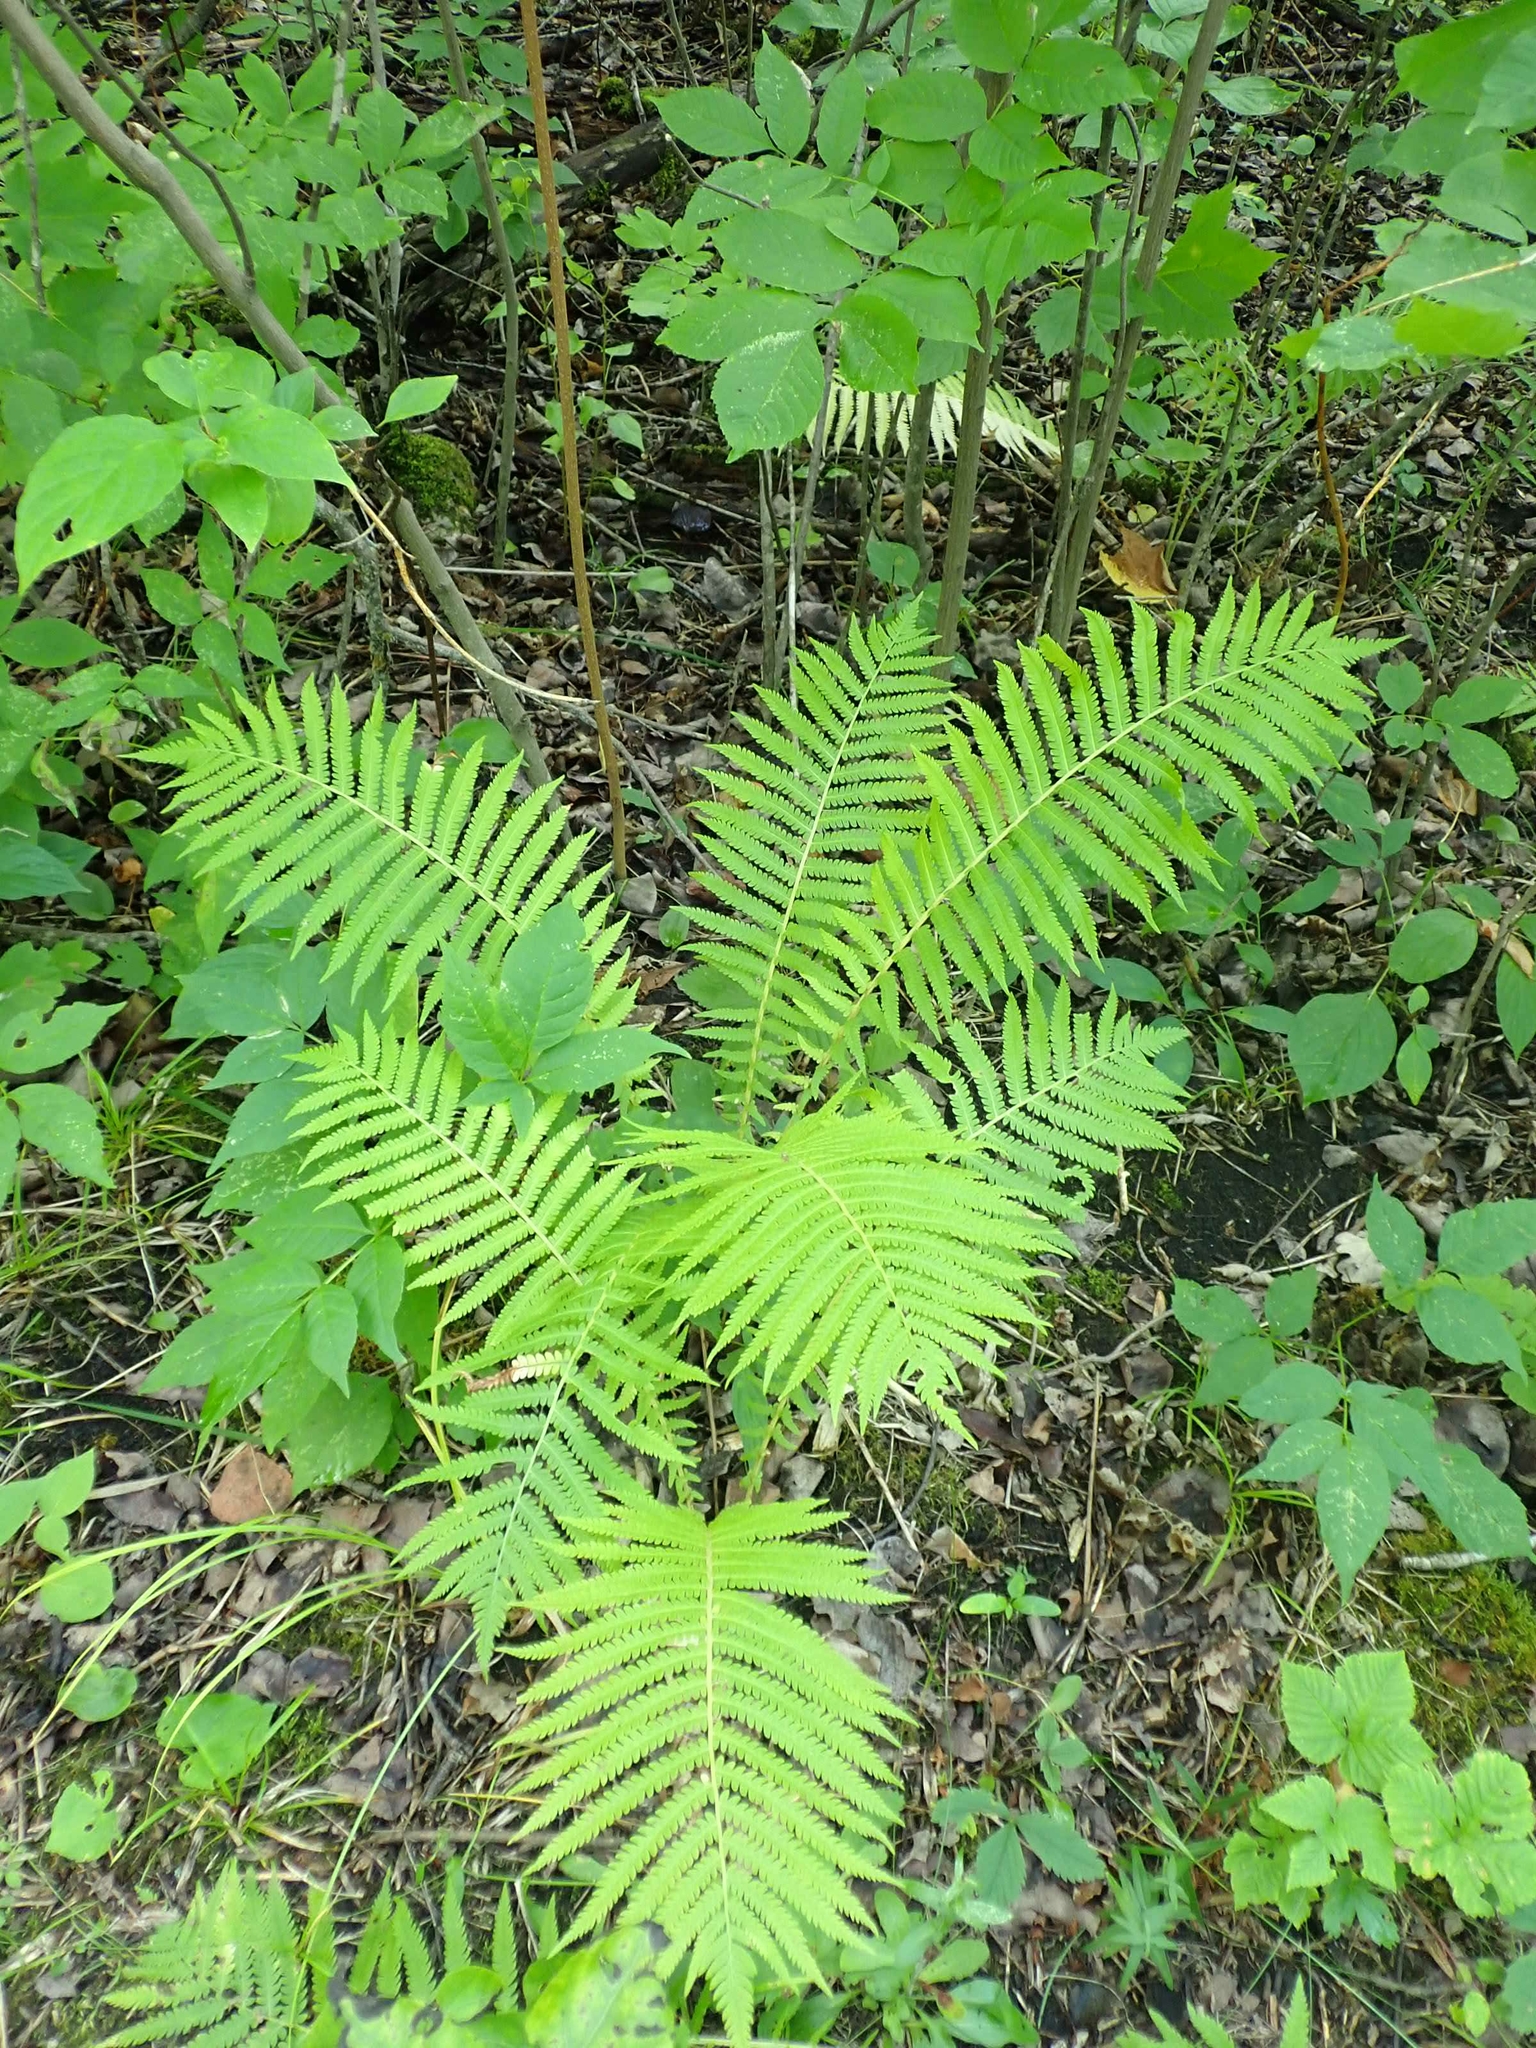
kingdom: Plantae
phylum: Tracheophyta
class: Polypodiopsida
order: Polypodiales
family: Onocleaceae
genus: Matteuccia
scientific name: Matteuccia struthiopteris
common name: Ostrich fern
